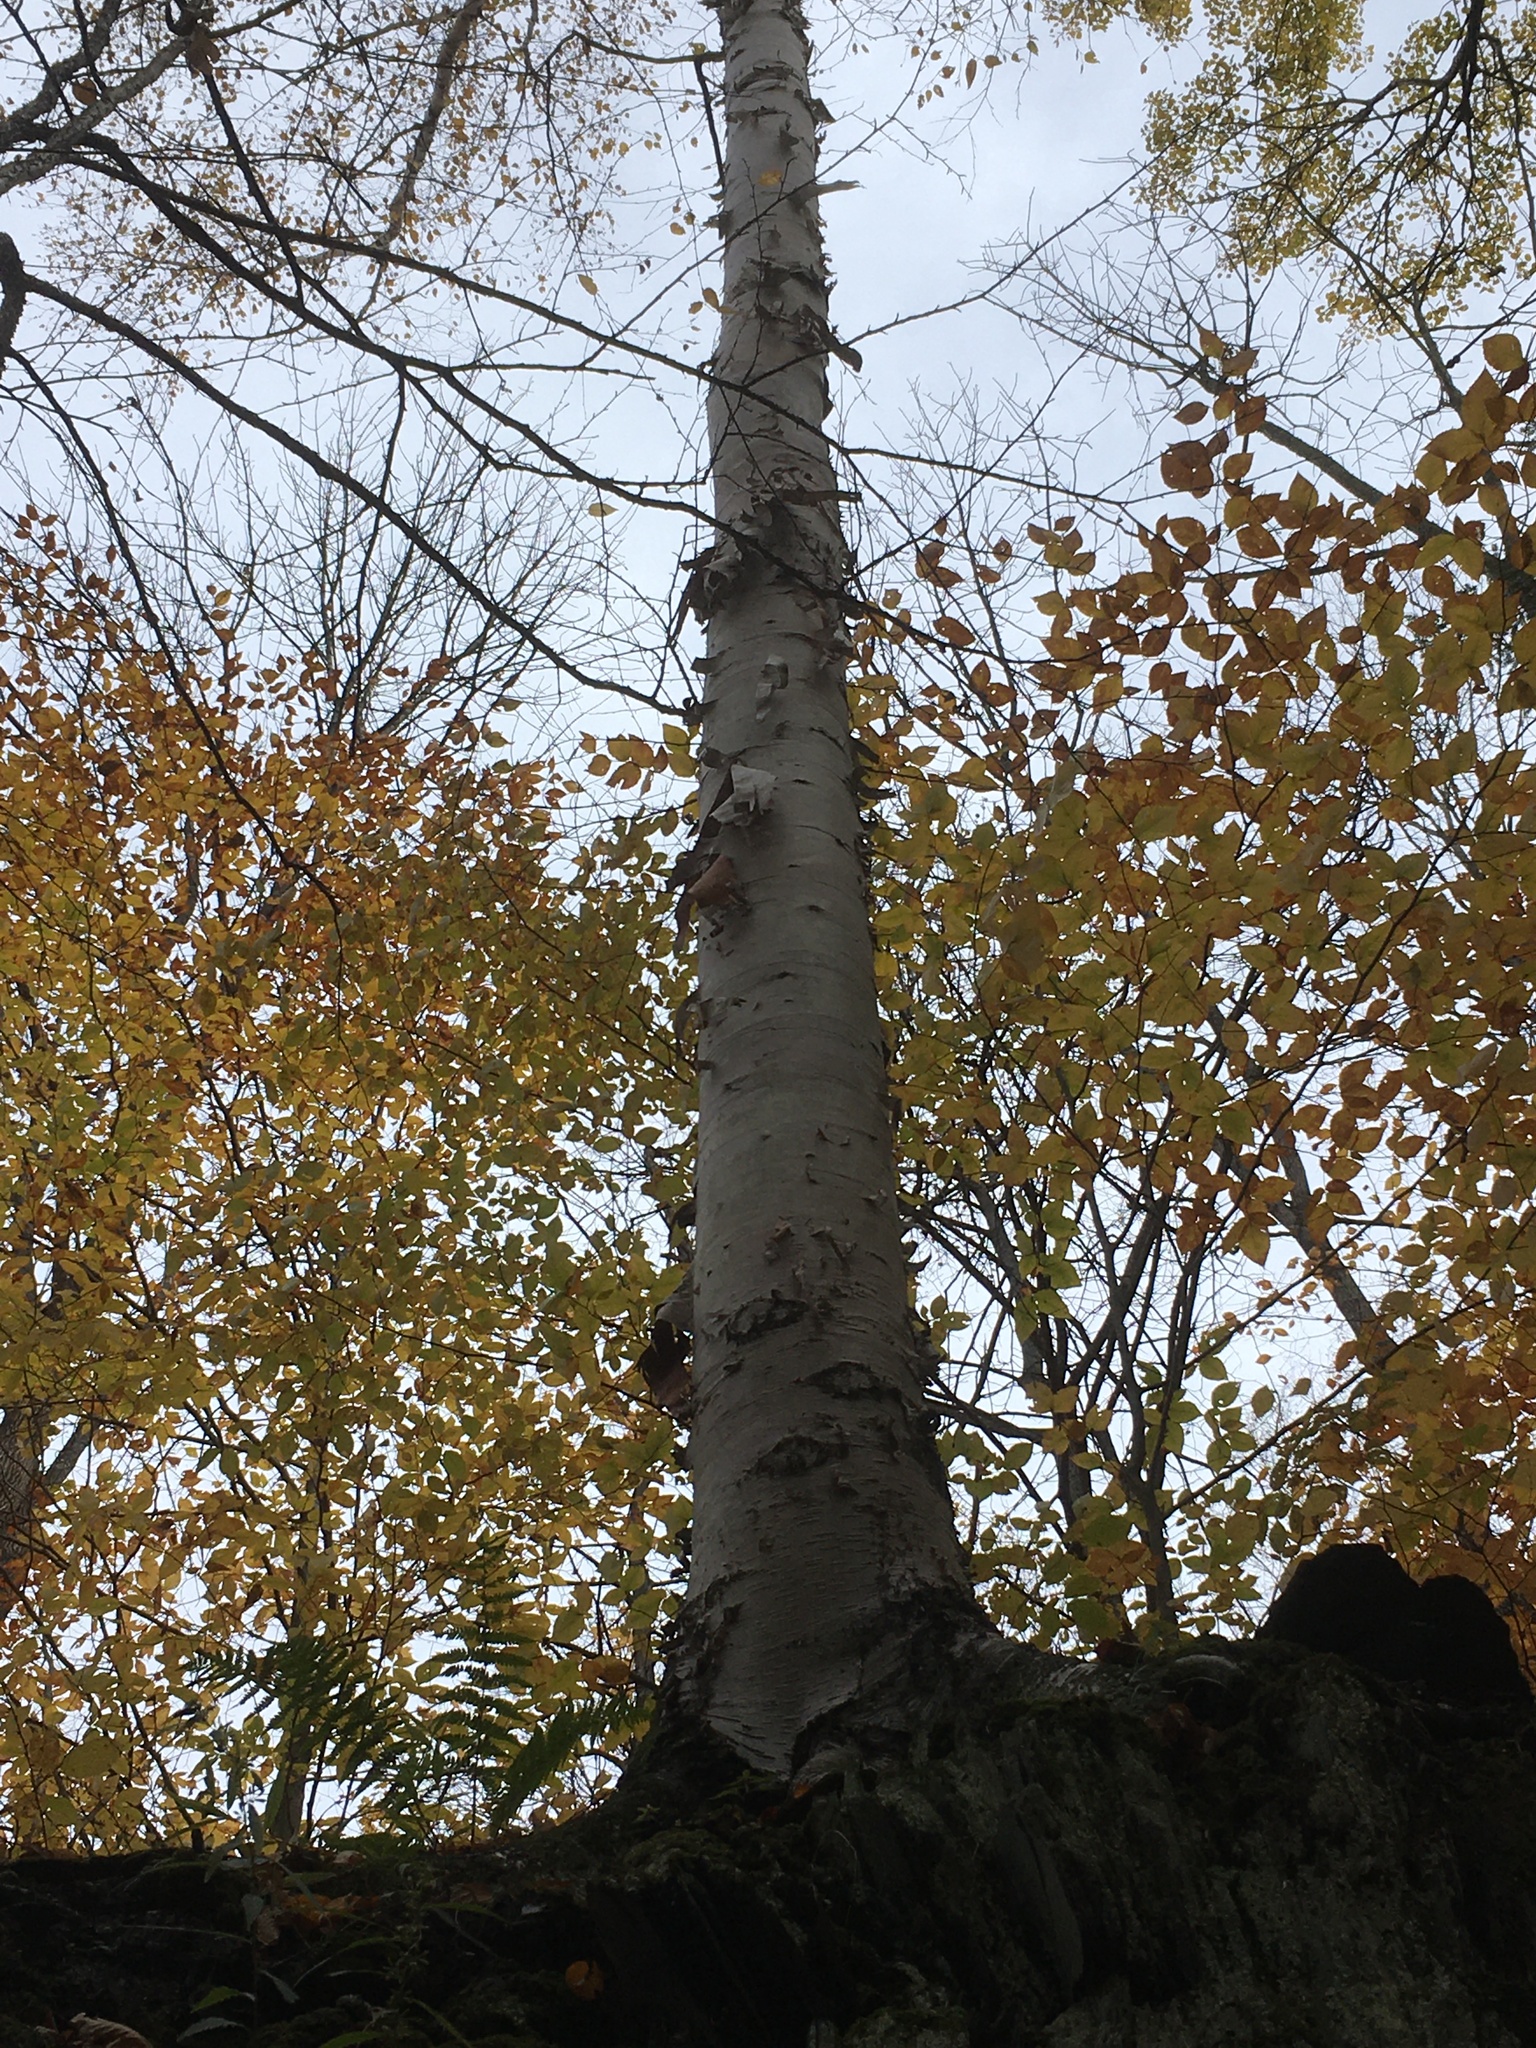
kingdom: Plantae
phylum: Tracheophyta
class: Magnoliopsida
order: Fagales
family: Betulaceae
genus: Betula
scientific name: Betula papyrifera
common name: Paper birch
